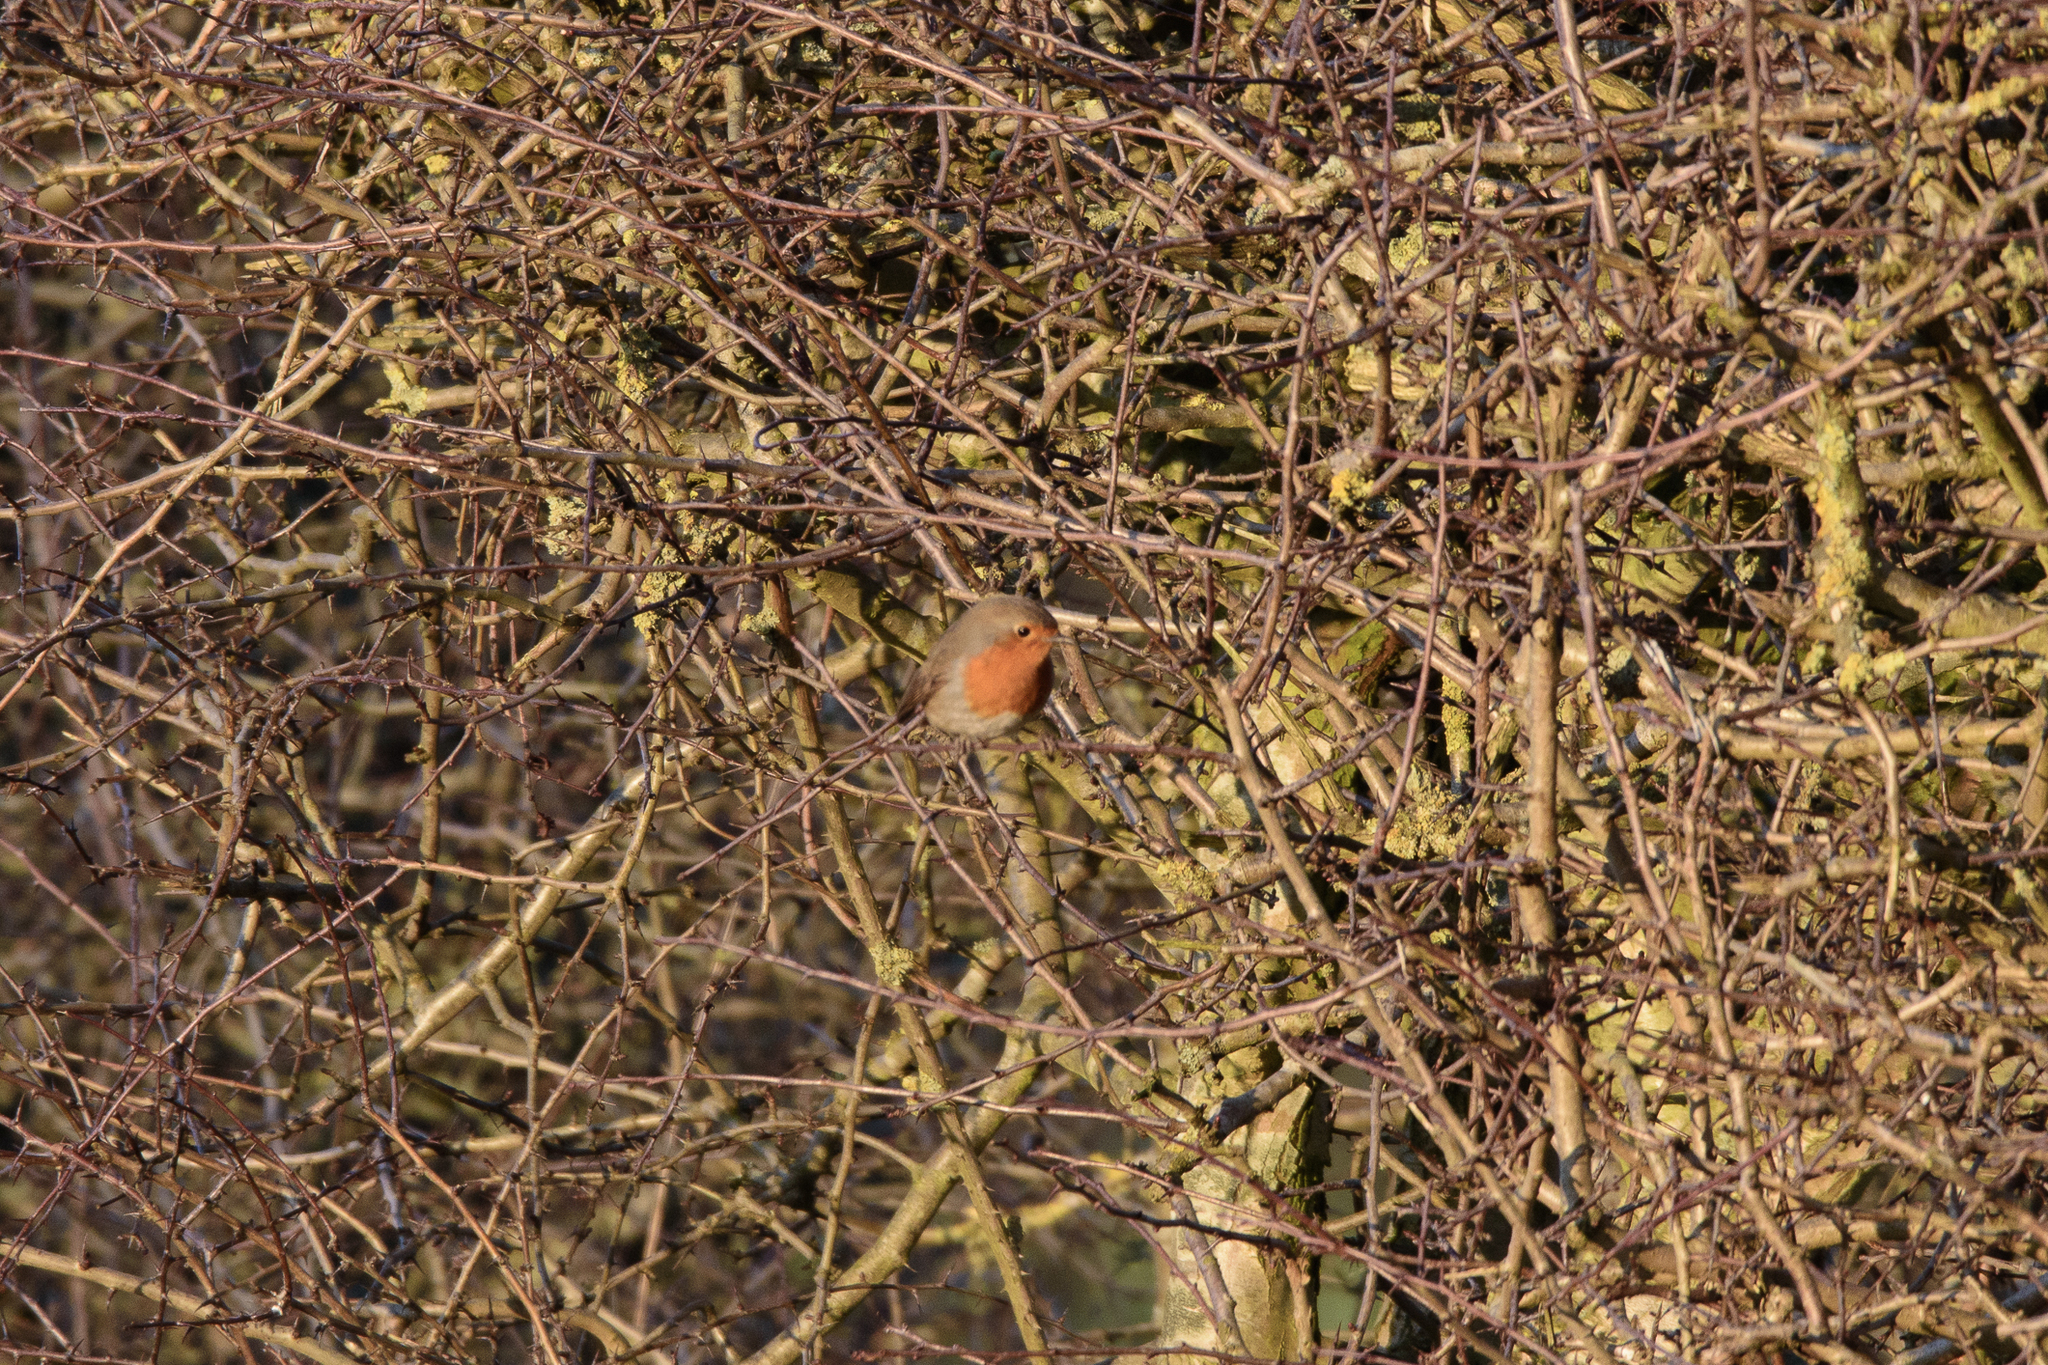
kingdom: Animalia
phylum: Chordata
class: Aves
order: Passeriformes
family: Muscicapidae
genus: Erithacus
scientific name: Erithacus rubecula
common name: European robin
